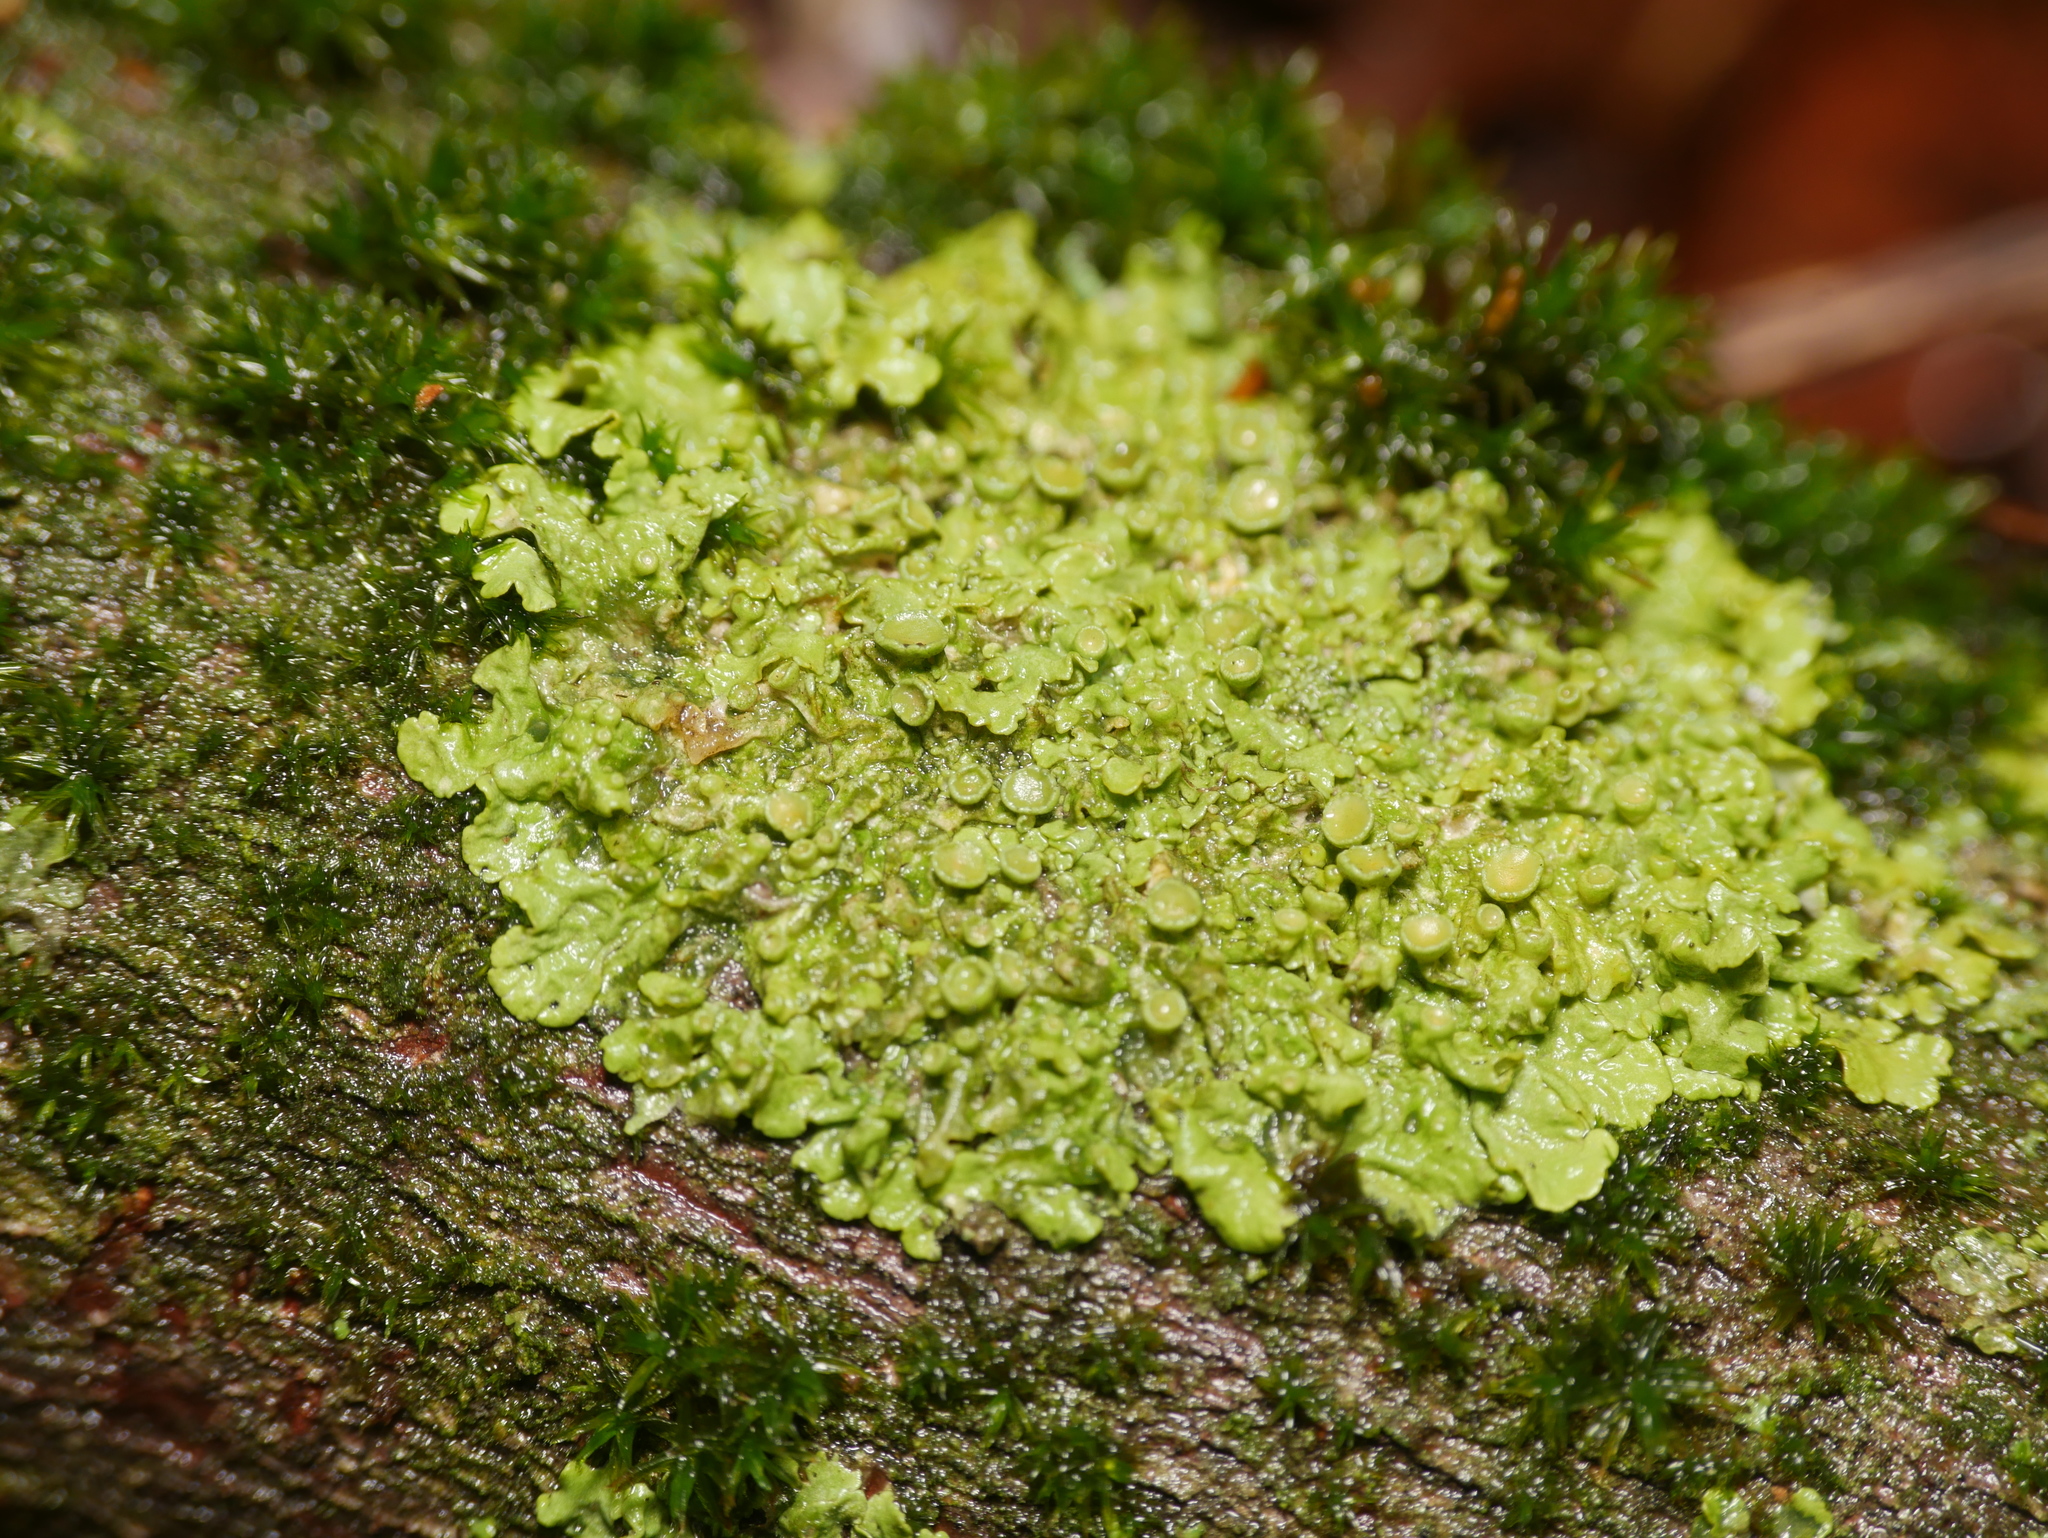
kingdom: Fungi
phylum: Ascomycota
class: Lecanoromycetes
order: Teloschistales
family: Teloschistaceae
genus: Xanthoria
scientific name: Xanthoria parietina
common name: Common orange lichen
